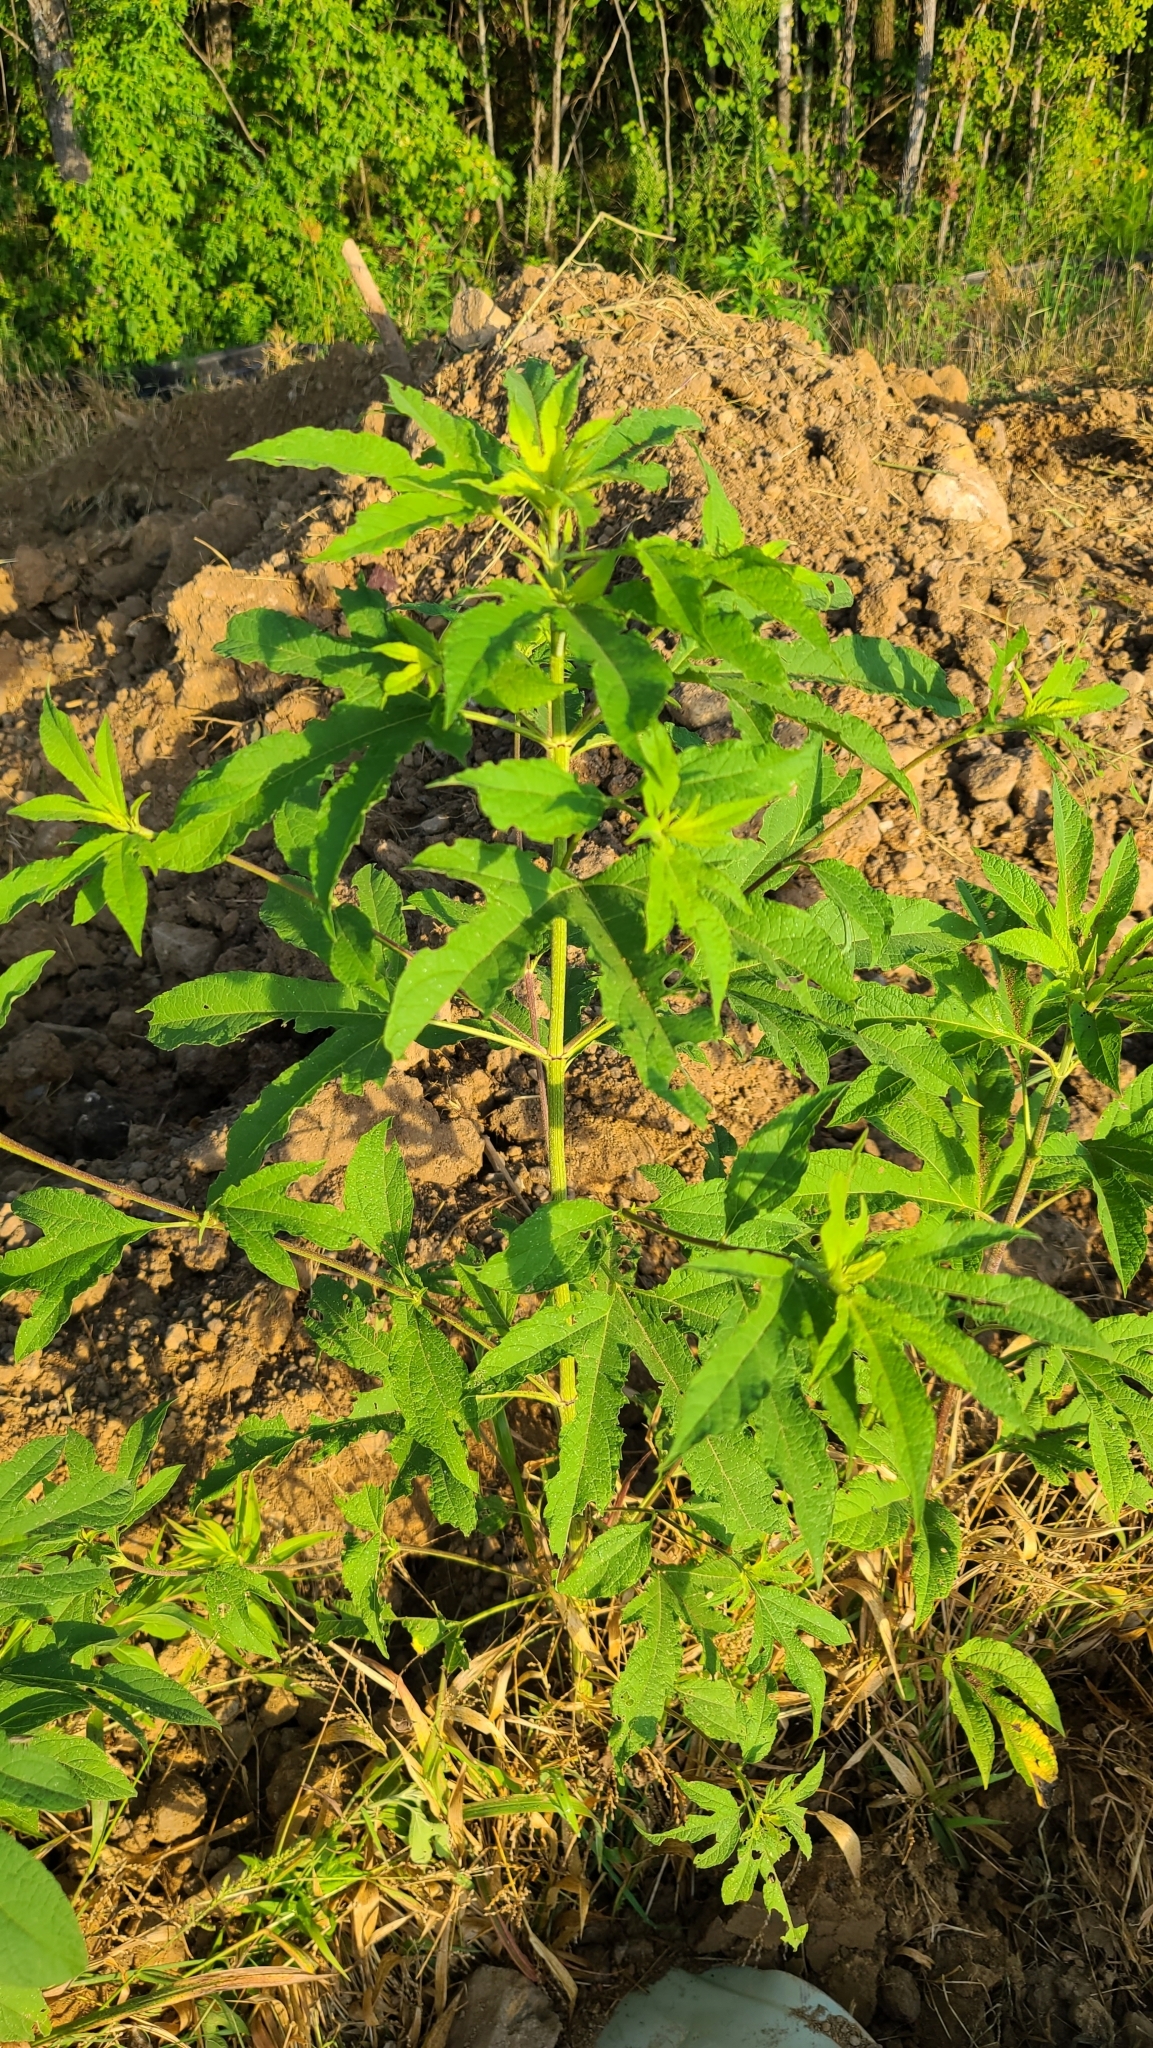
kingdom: Plantae
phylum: Tracheophyta
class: Magnoliopsida
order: Asterales
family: Asteraceae
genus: Ambrosia
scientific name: Ambrosia trifida
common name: Giant ragweed
